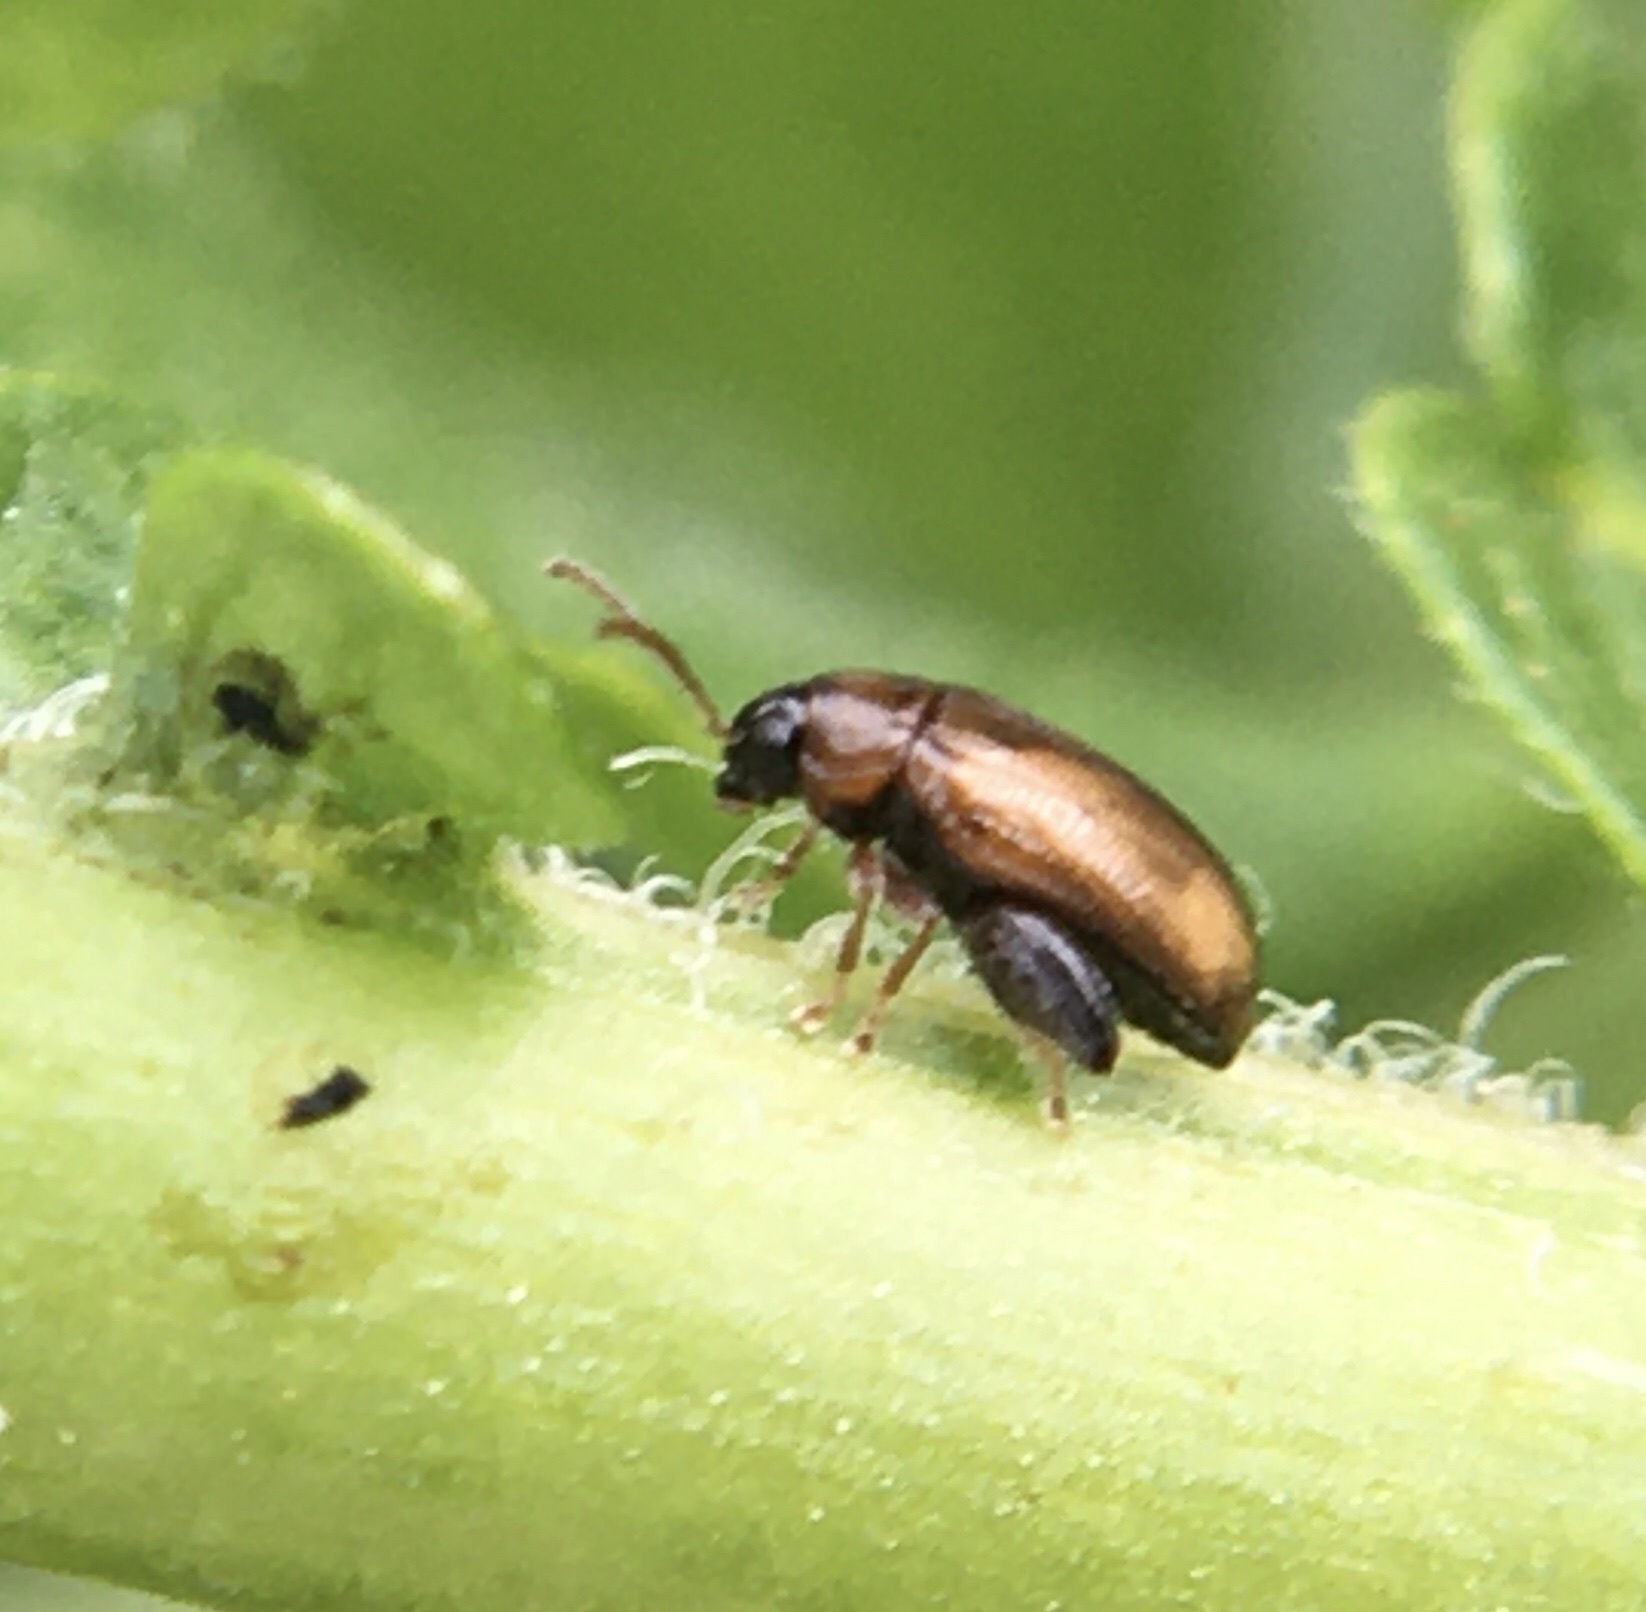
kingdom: Animalia
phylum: Arthropoda
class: Insecta
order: Coleoptera
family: Chrysomelidae
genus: Psylliodes
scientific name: Psylliodes affinis
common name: Potato flea beetle
